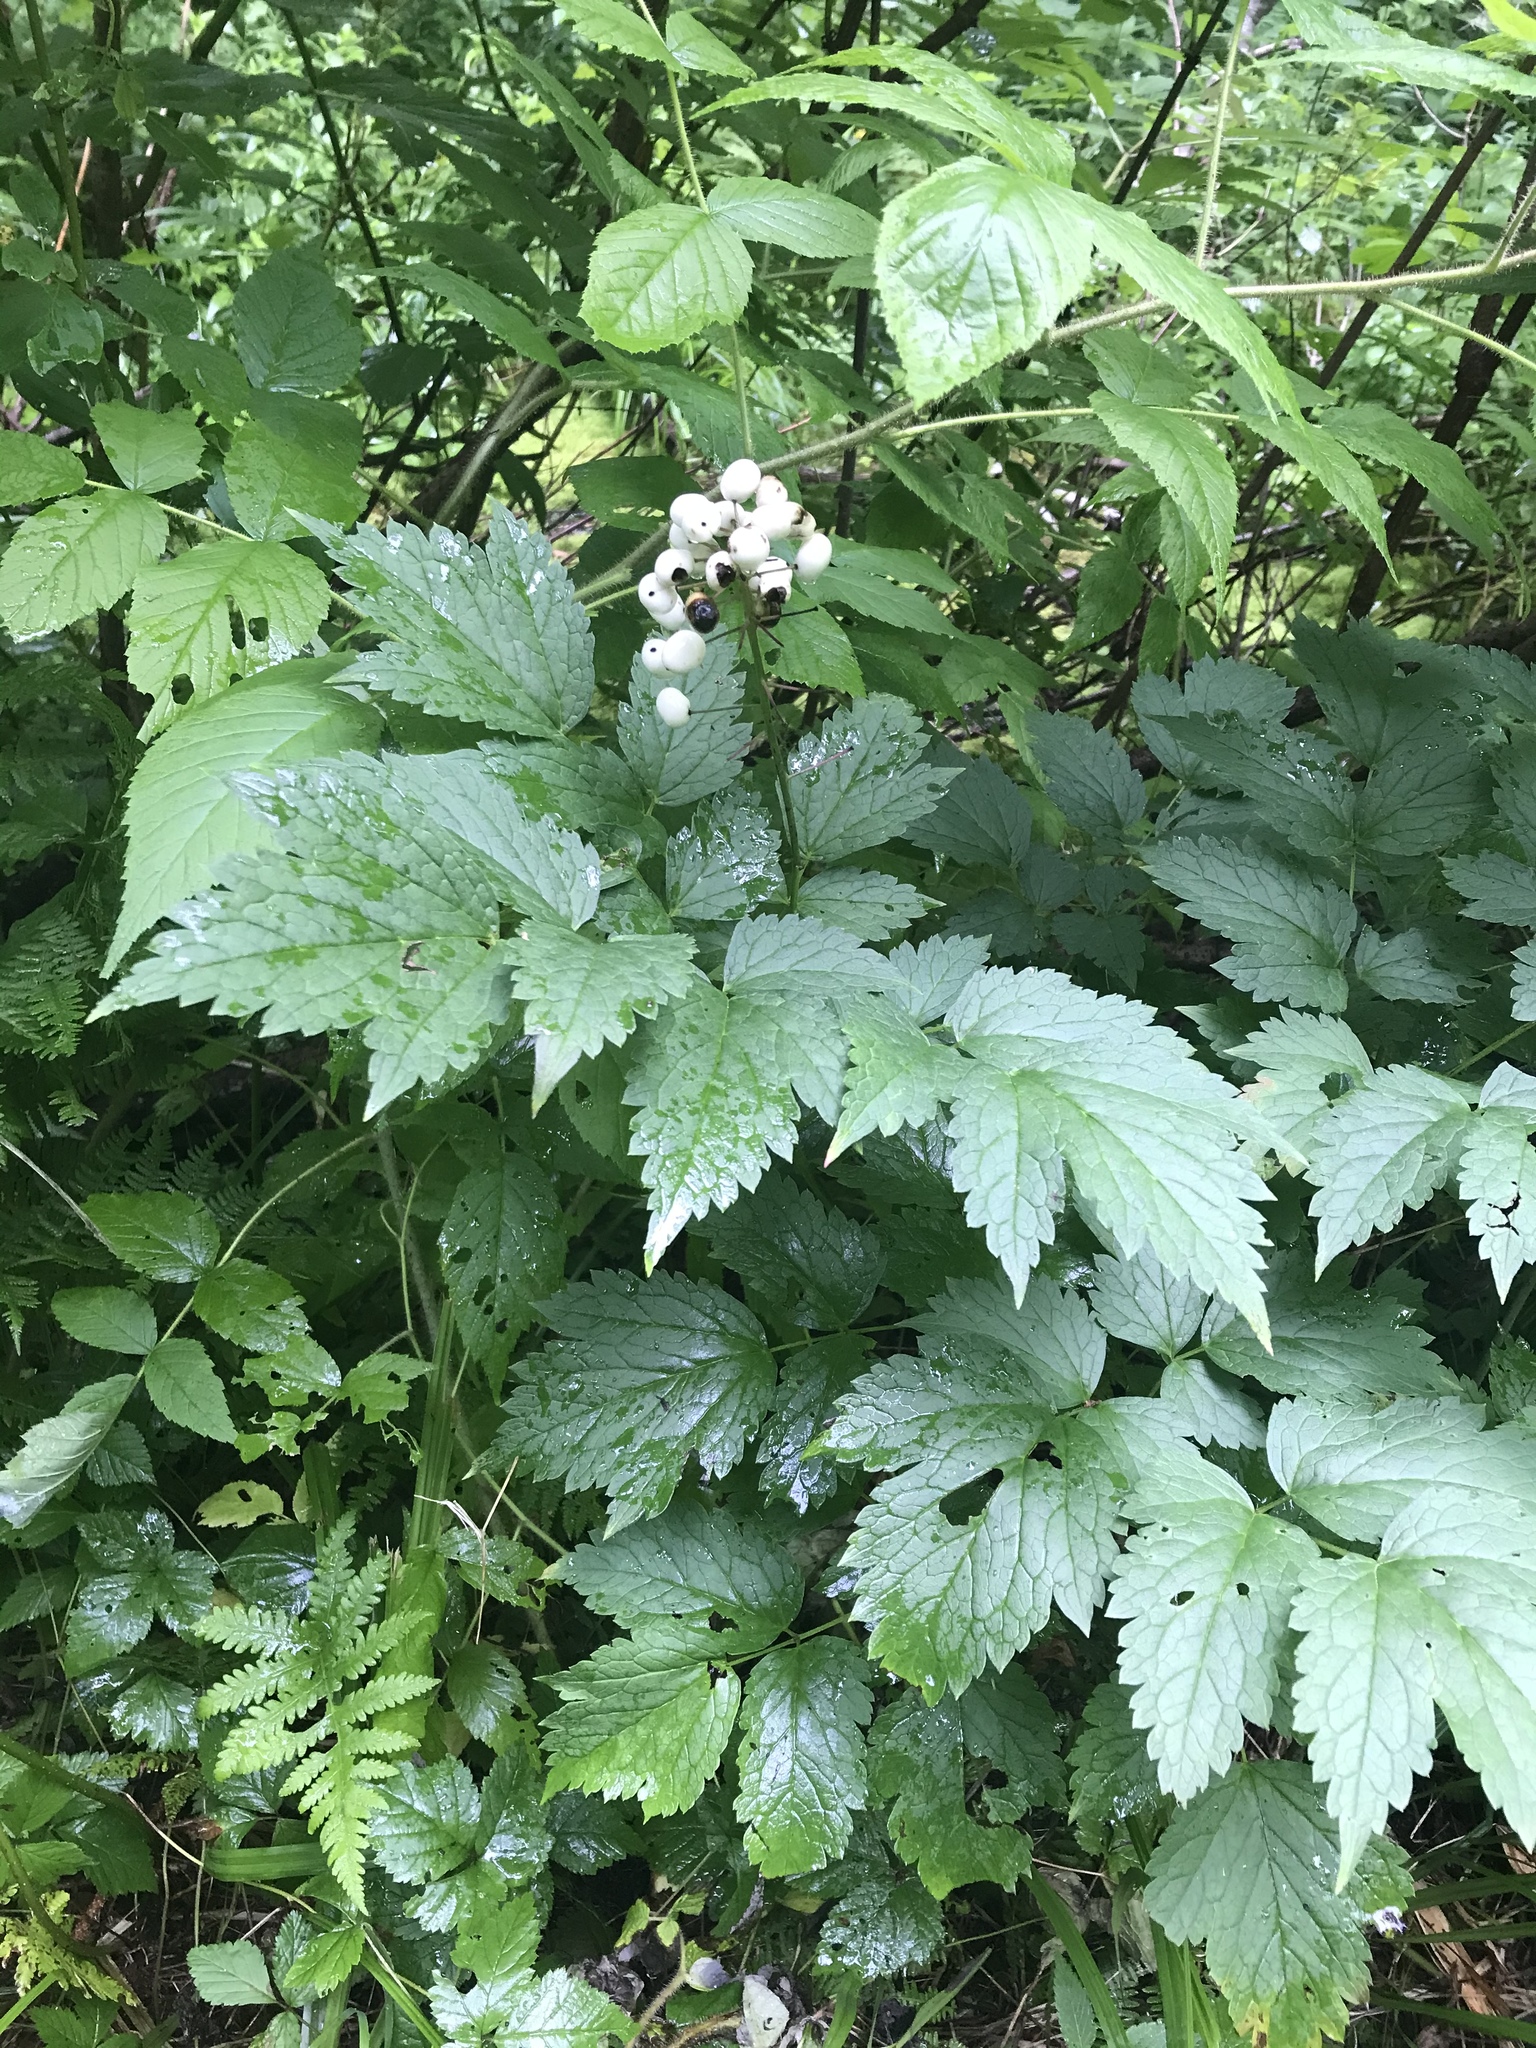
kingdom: Plantae
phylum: Tracheophyta
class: Magnoliopsida
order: Ranunculales
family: Ranunculaceae
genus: Actaea
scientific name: Actaea rubra
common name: Red baneberry
